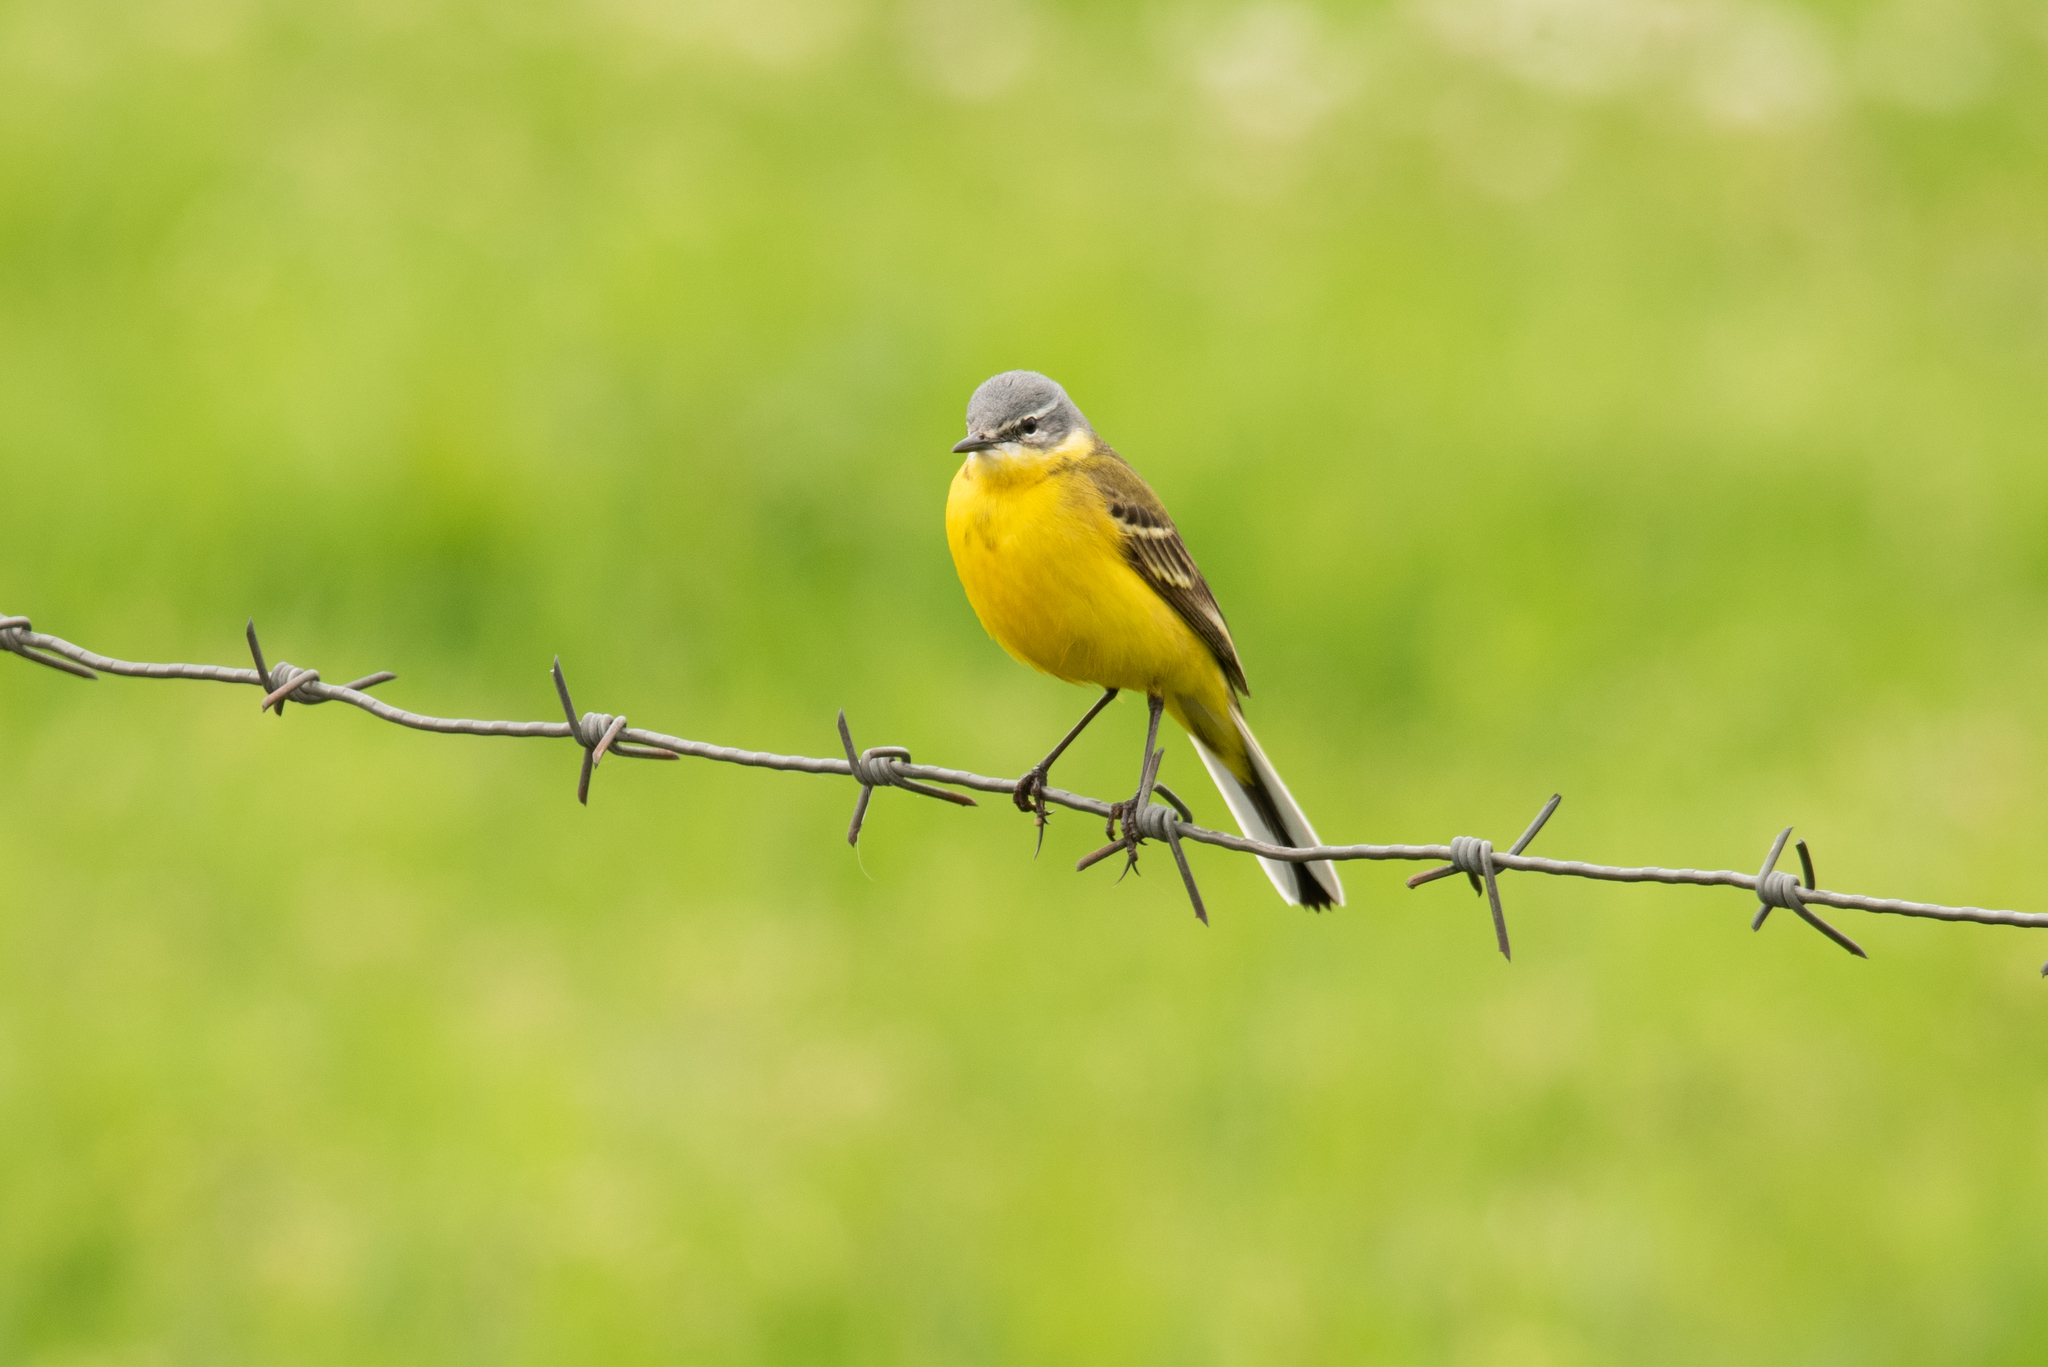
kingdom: Animalia
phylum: Chordata
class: Aves
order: Passeriformes
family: Motacillidae
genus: Motacilla
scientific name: Motacilla flava
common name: Western yellow wagtail
